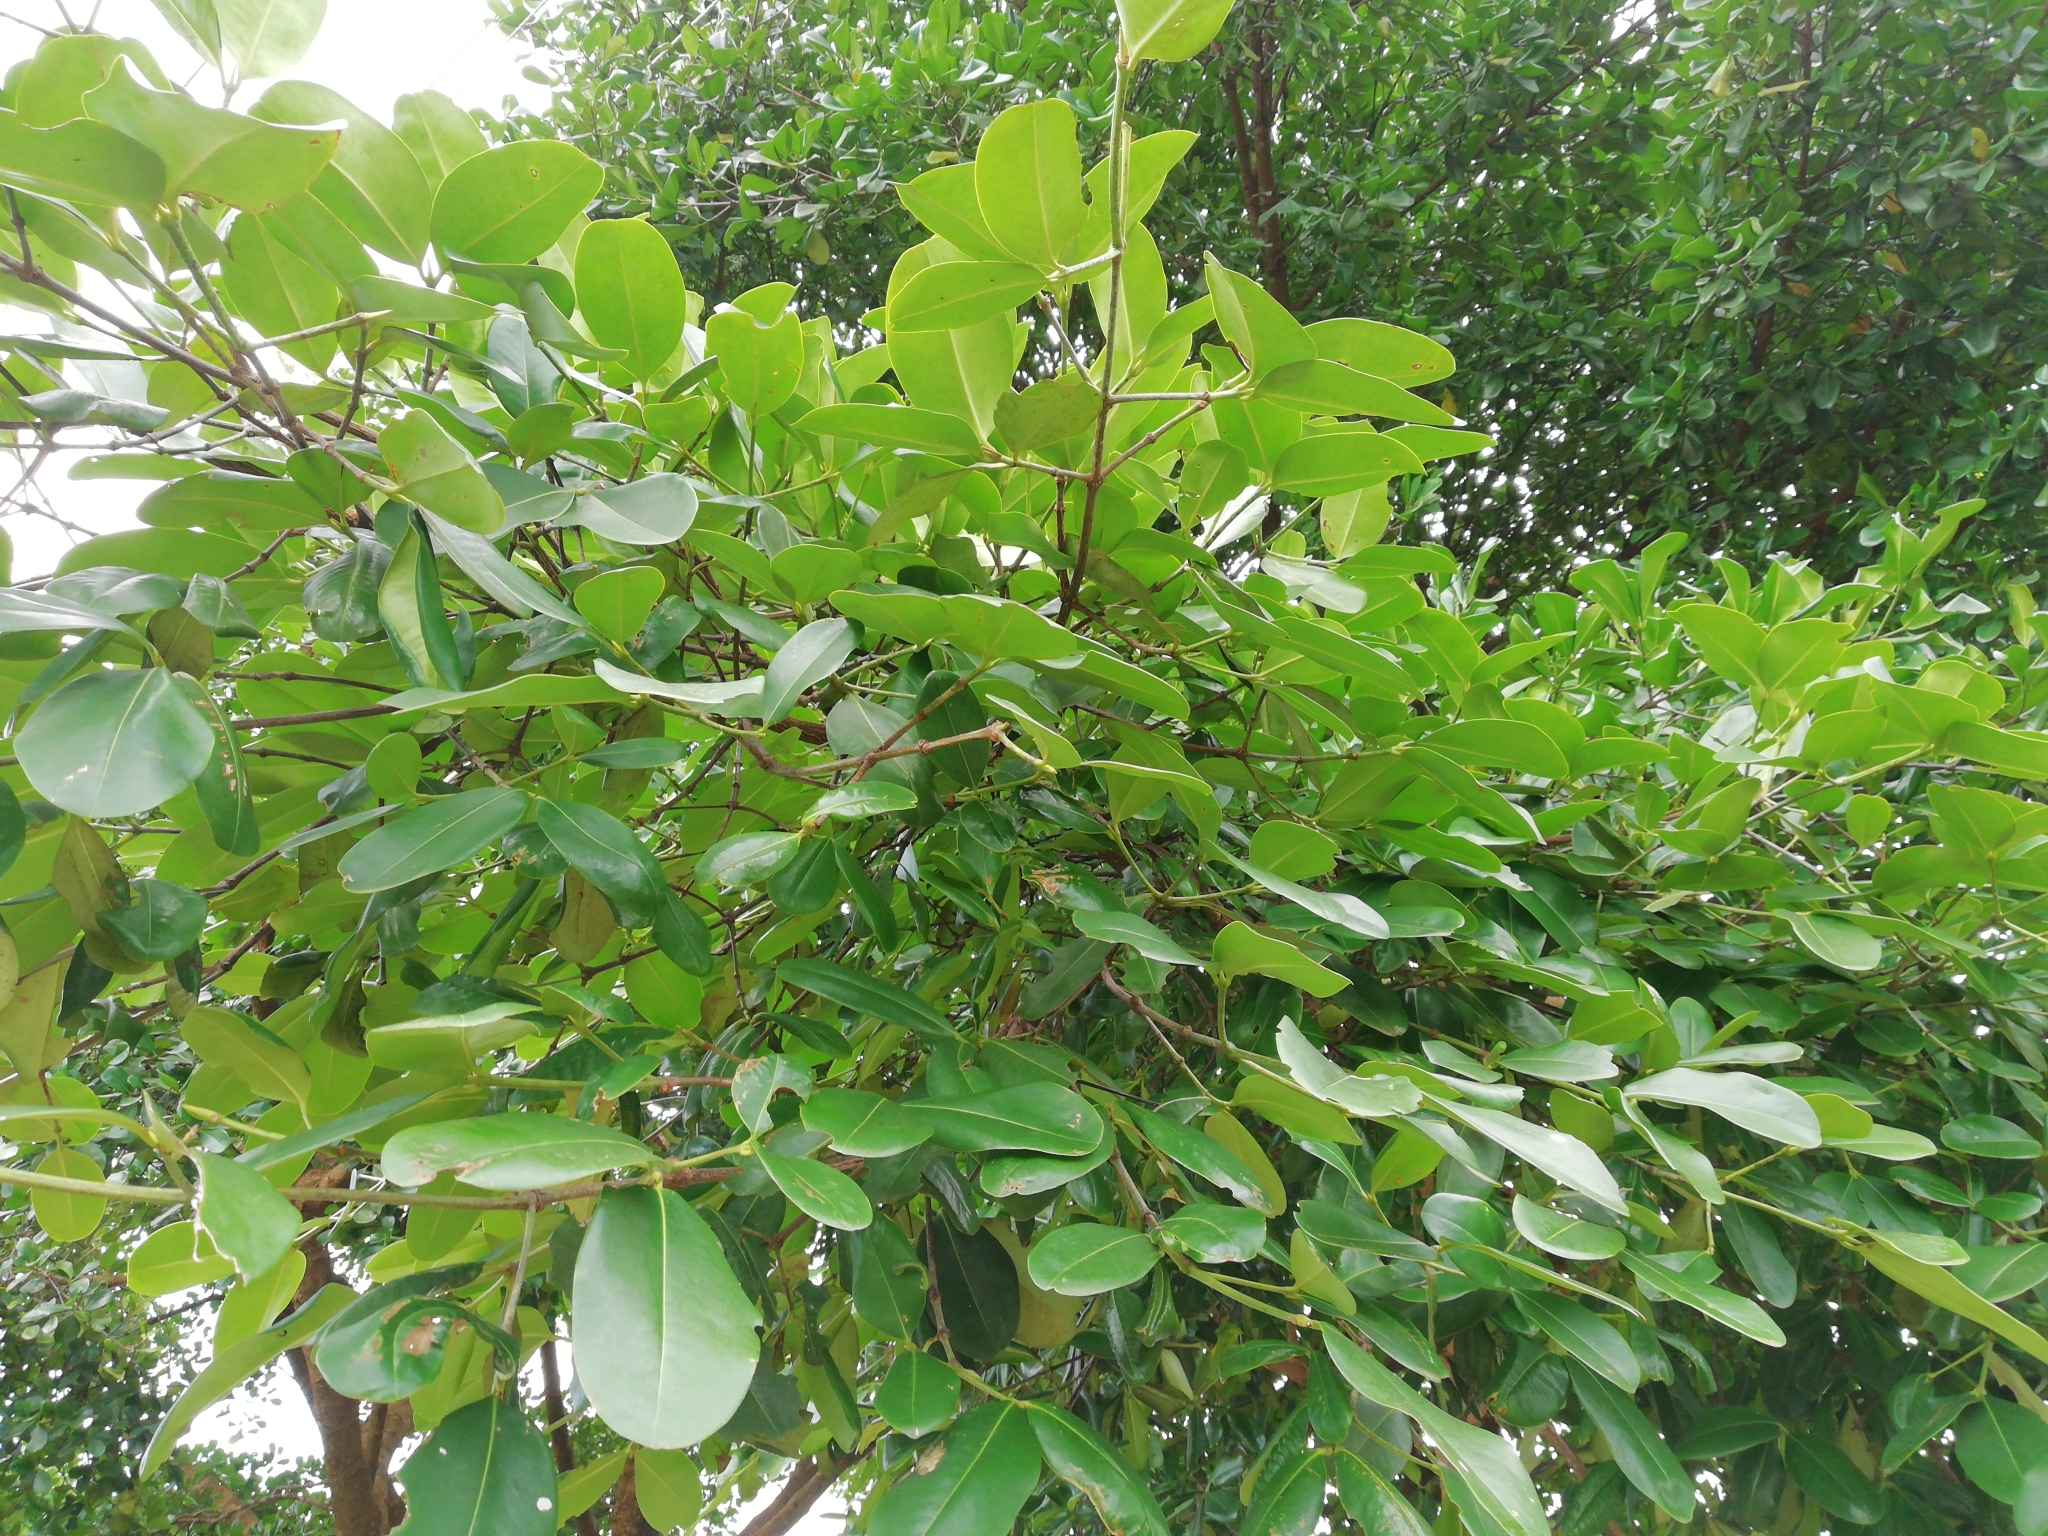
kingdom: Plantae
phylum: Tracheophyta
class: Magnoliopsida
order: Malpighiales
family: Rhizophoraceae
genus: Carallia
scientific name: Carallia brachiata
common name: Carallawood
